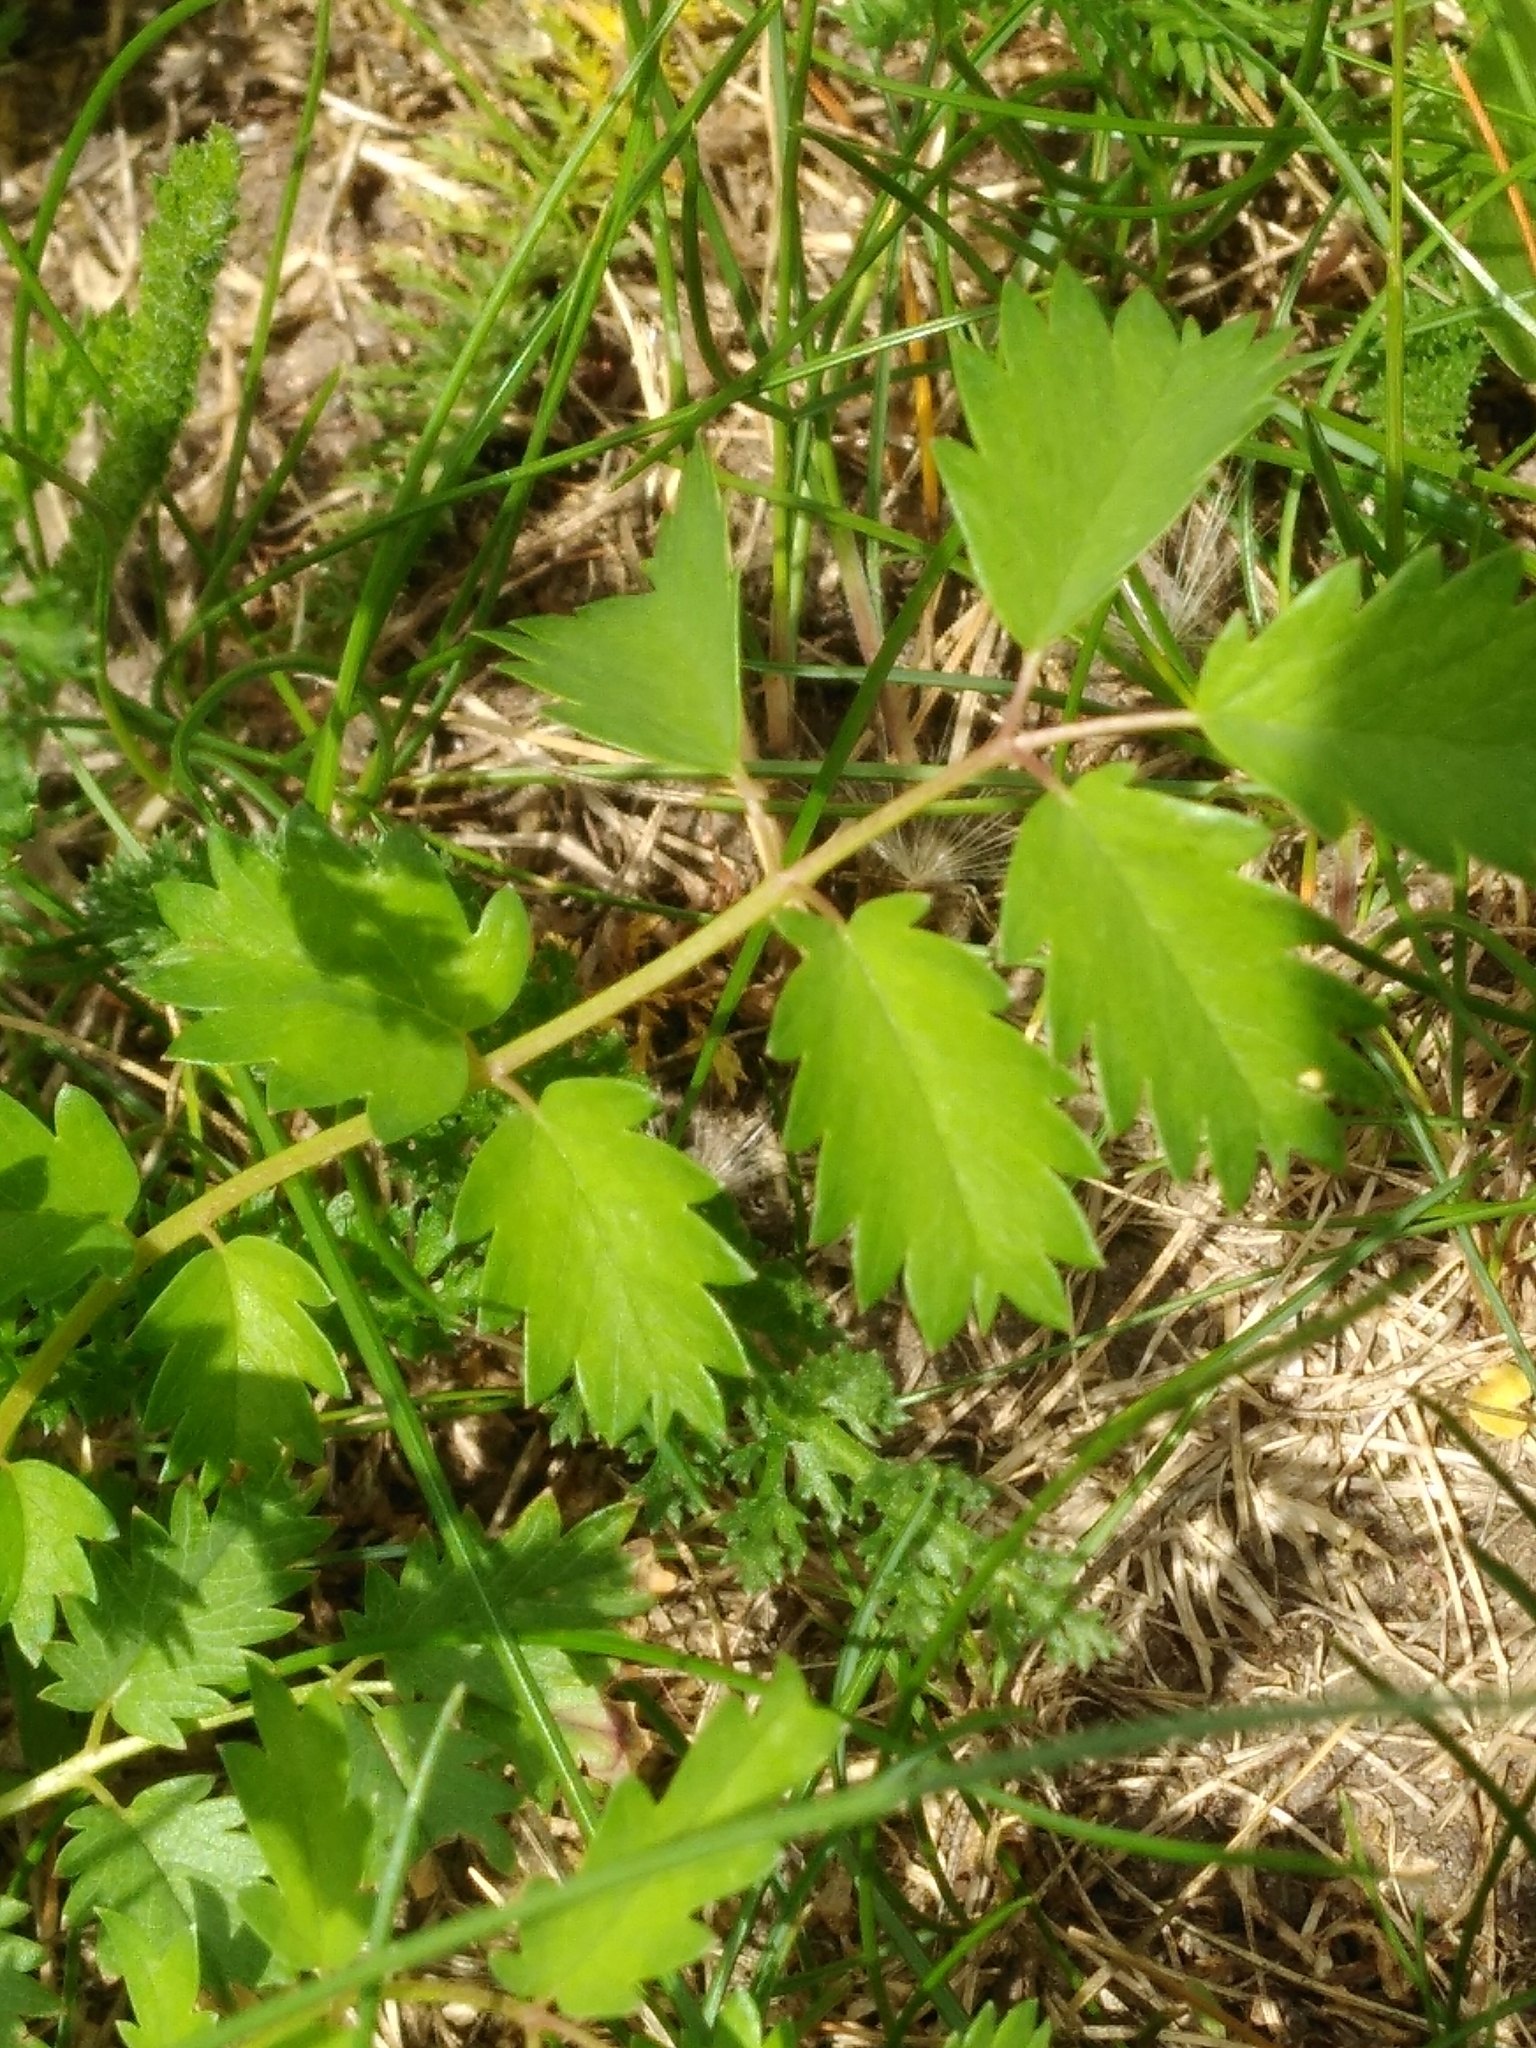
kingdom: Plantae
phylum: Tracheophyta
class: Magnoliopsida
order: Rosales
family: Rosaceae
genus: Poterium
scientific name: Poterium sanguisorba
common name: Salad burnet
